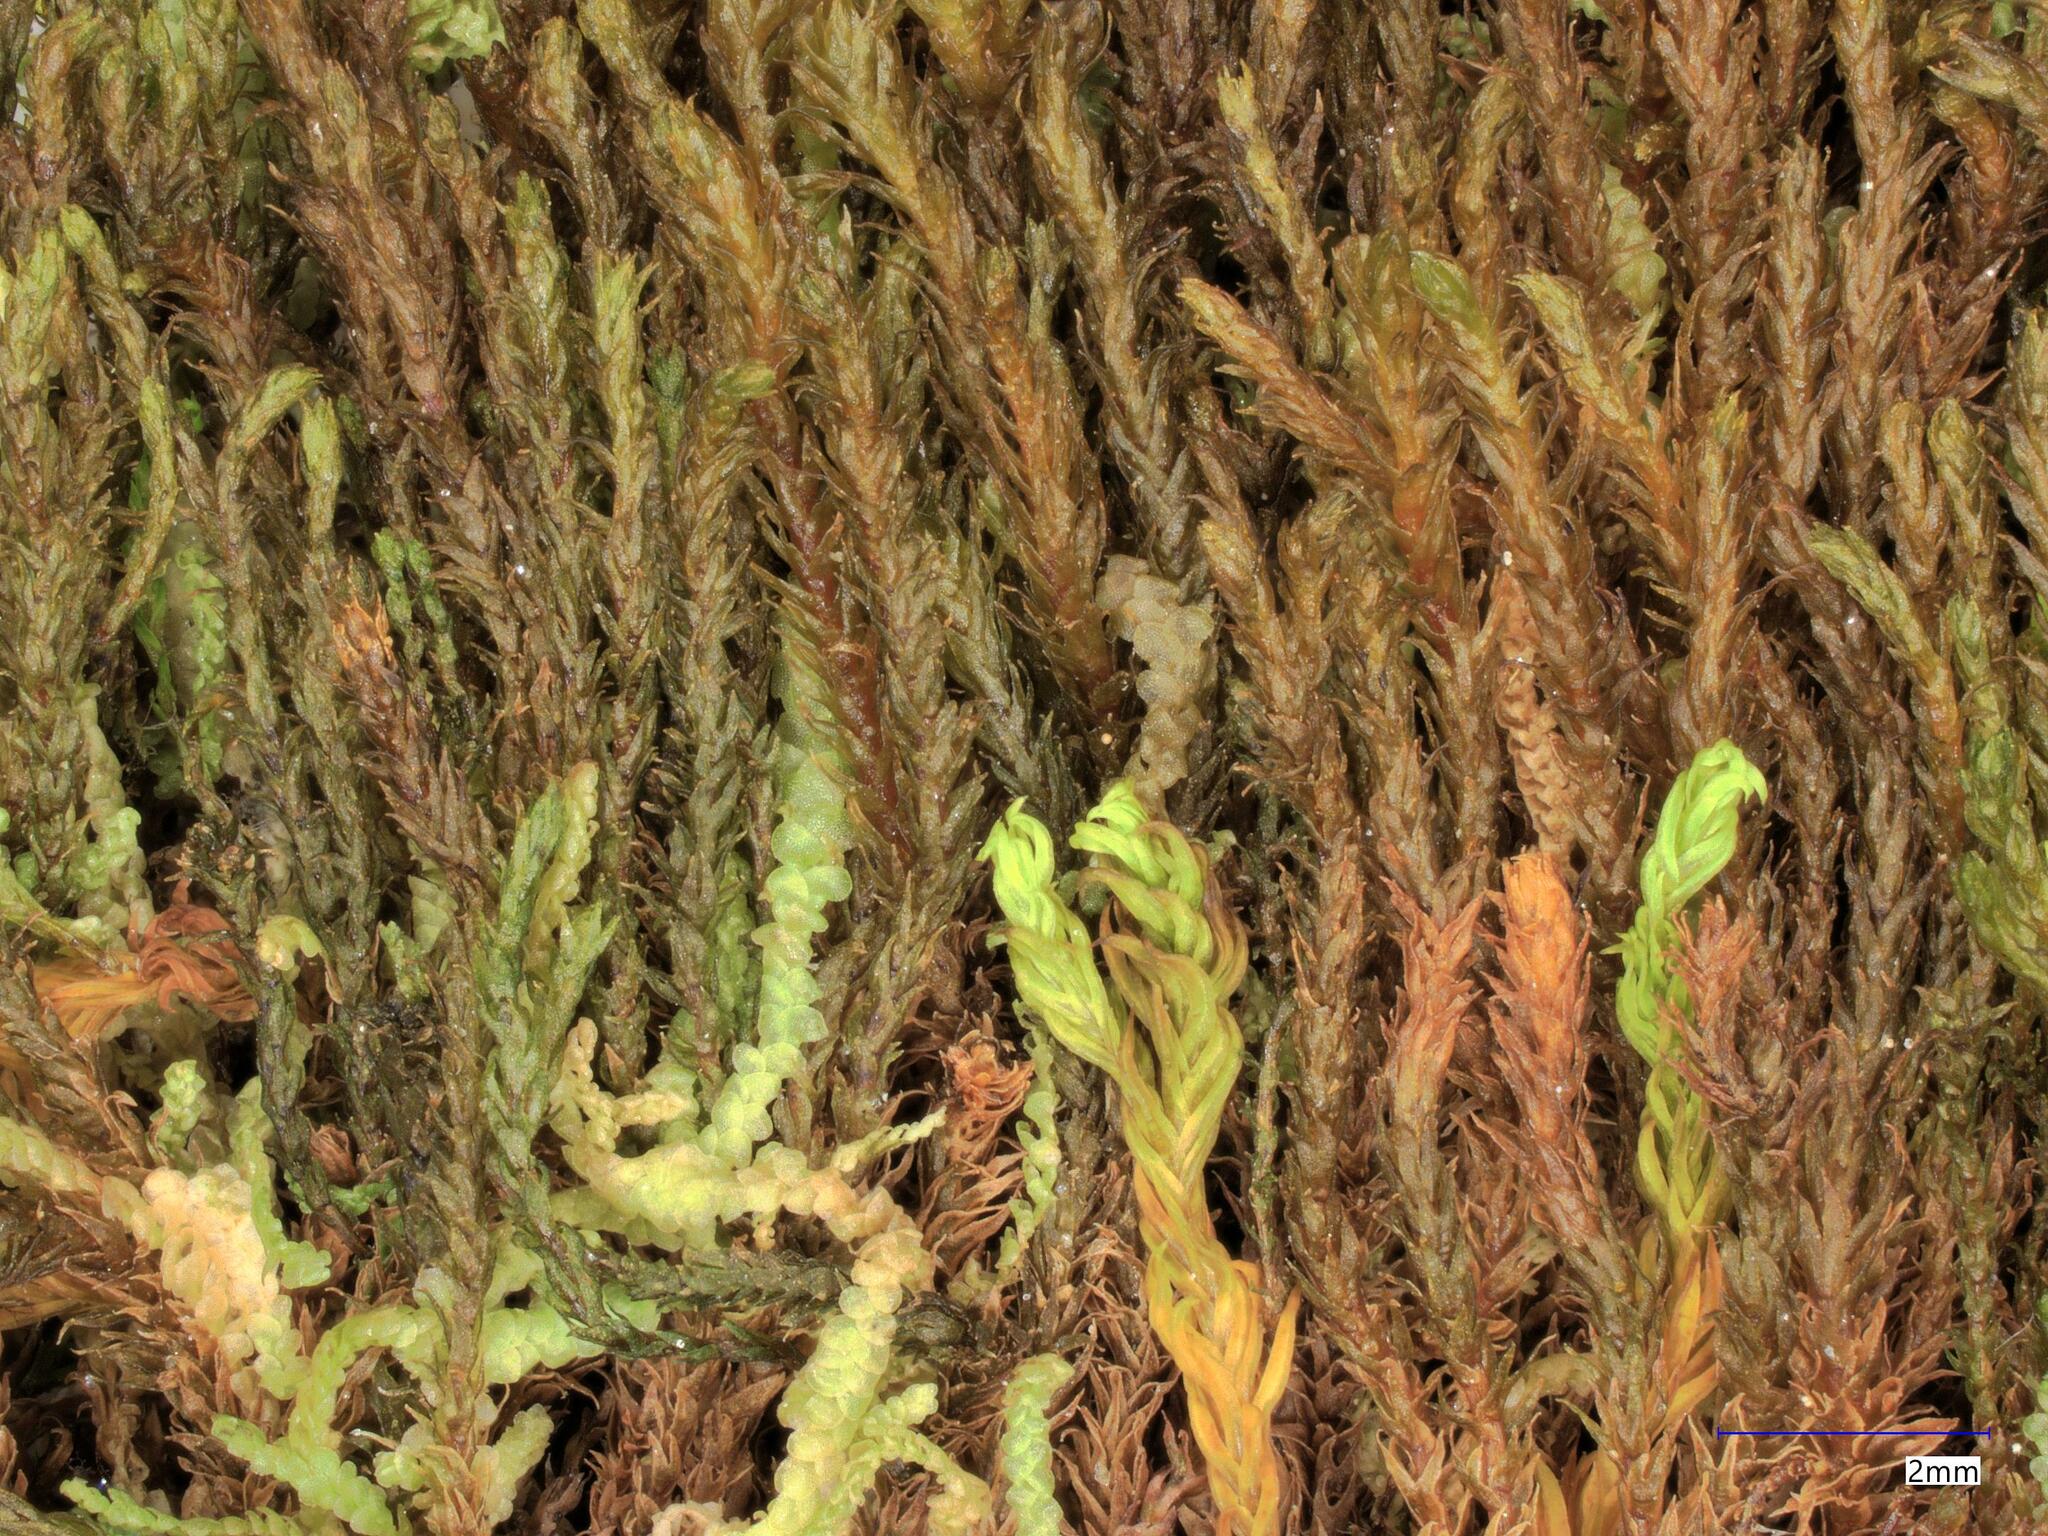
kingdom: Plantae
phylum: Marchantiophyta
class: Jungermanniopsida
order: Jungermanniales
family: Herbertaceae
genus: Herbertus
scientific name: Herbertus stramineus
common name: Straw prongwort
